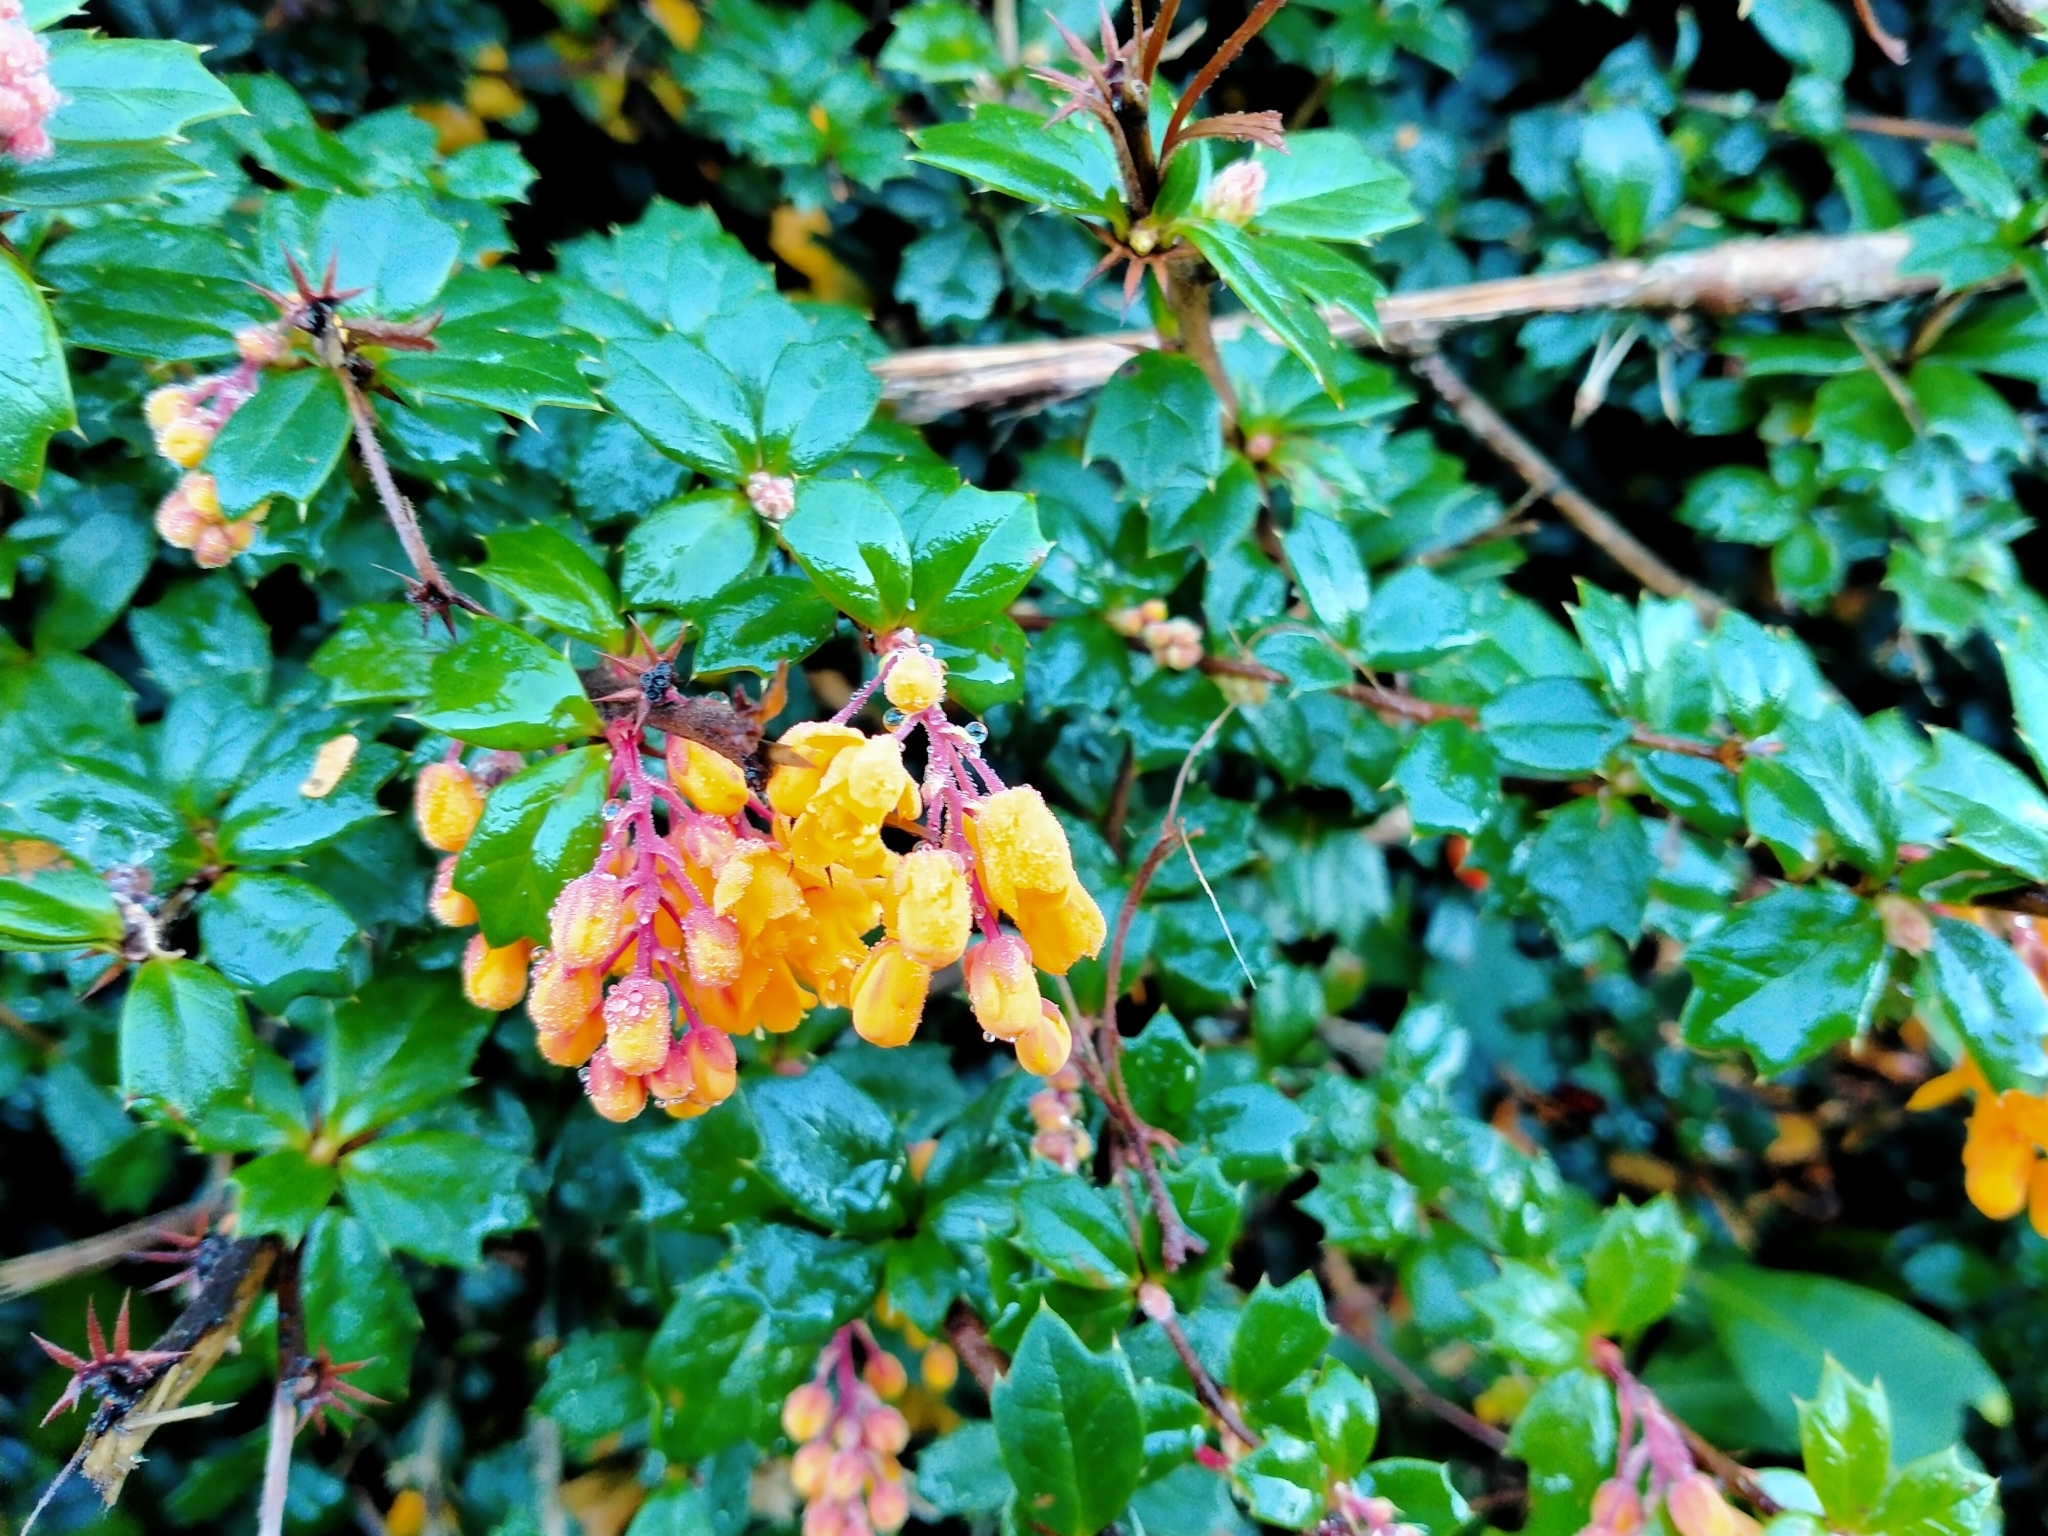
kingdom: Plantae
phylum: Tracheophyta
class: Magnoliopsida
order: Ranunculales
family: Berberidaceae
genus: Berberis
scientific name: Berberis darwinii
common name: Darwin's barberry
